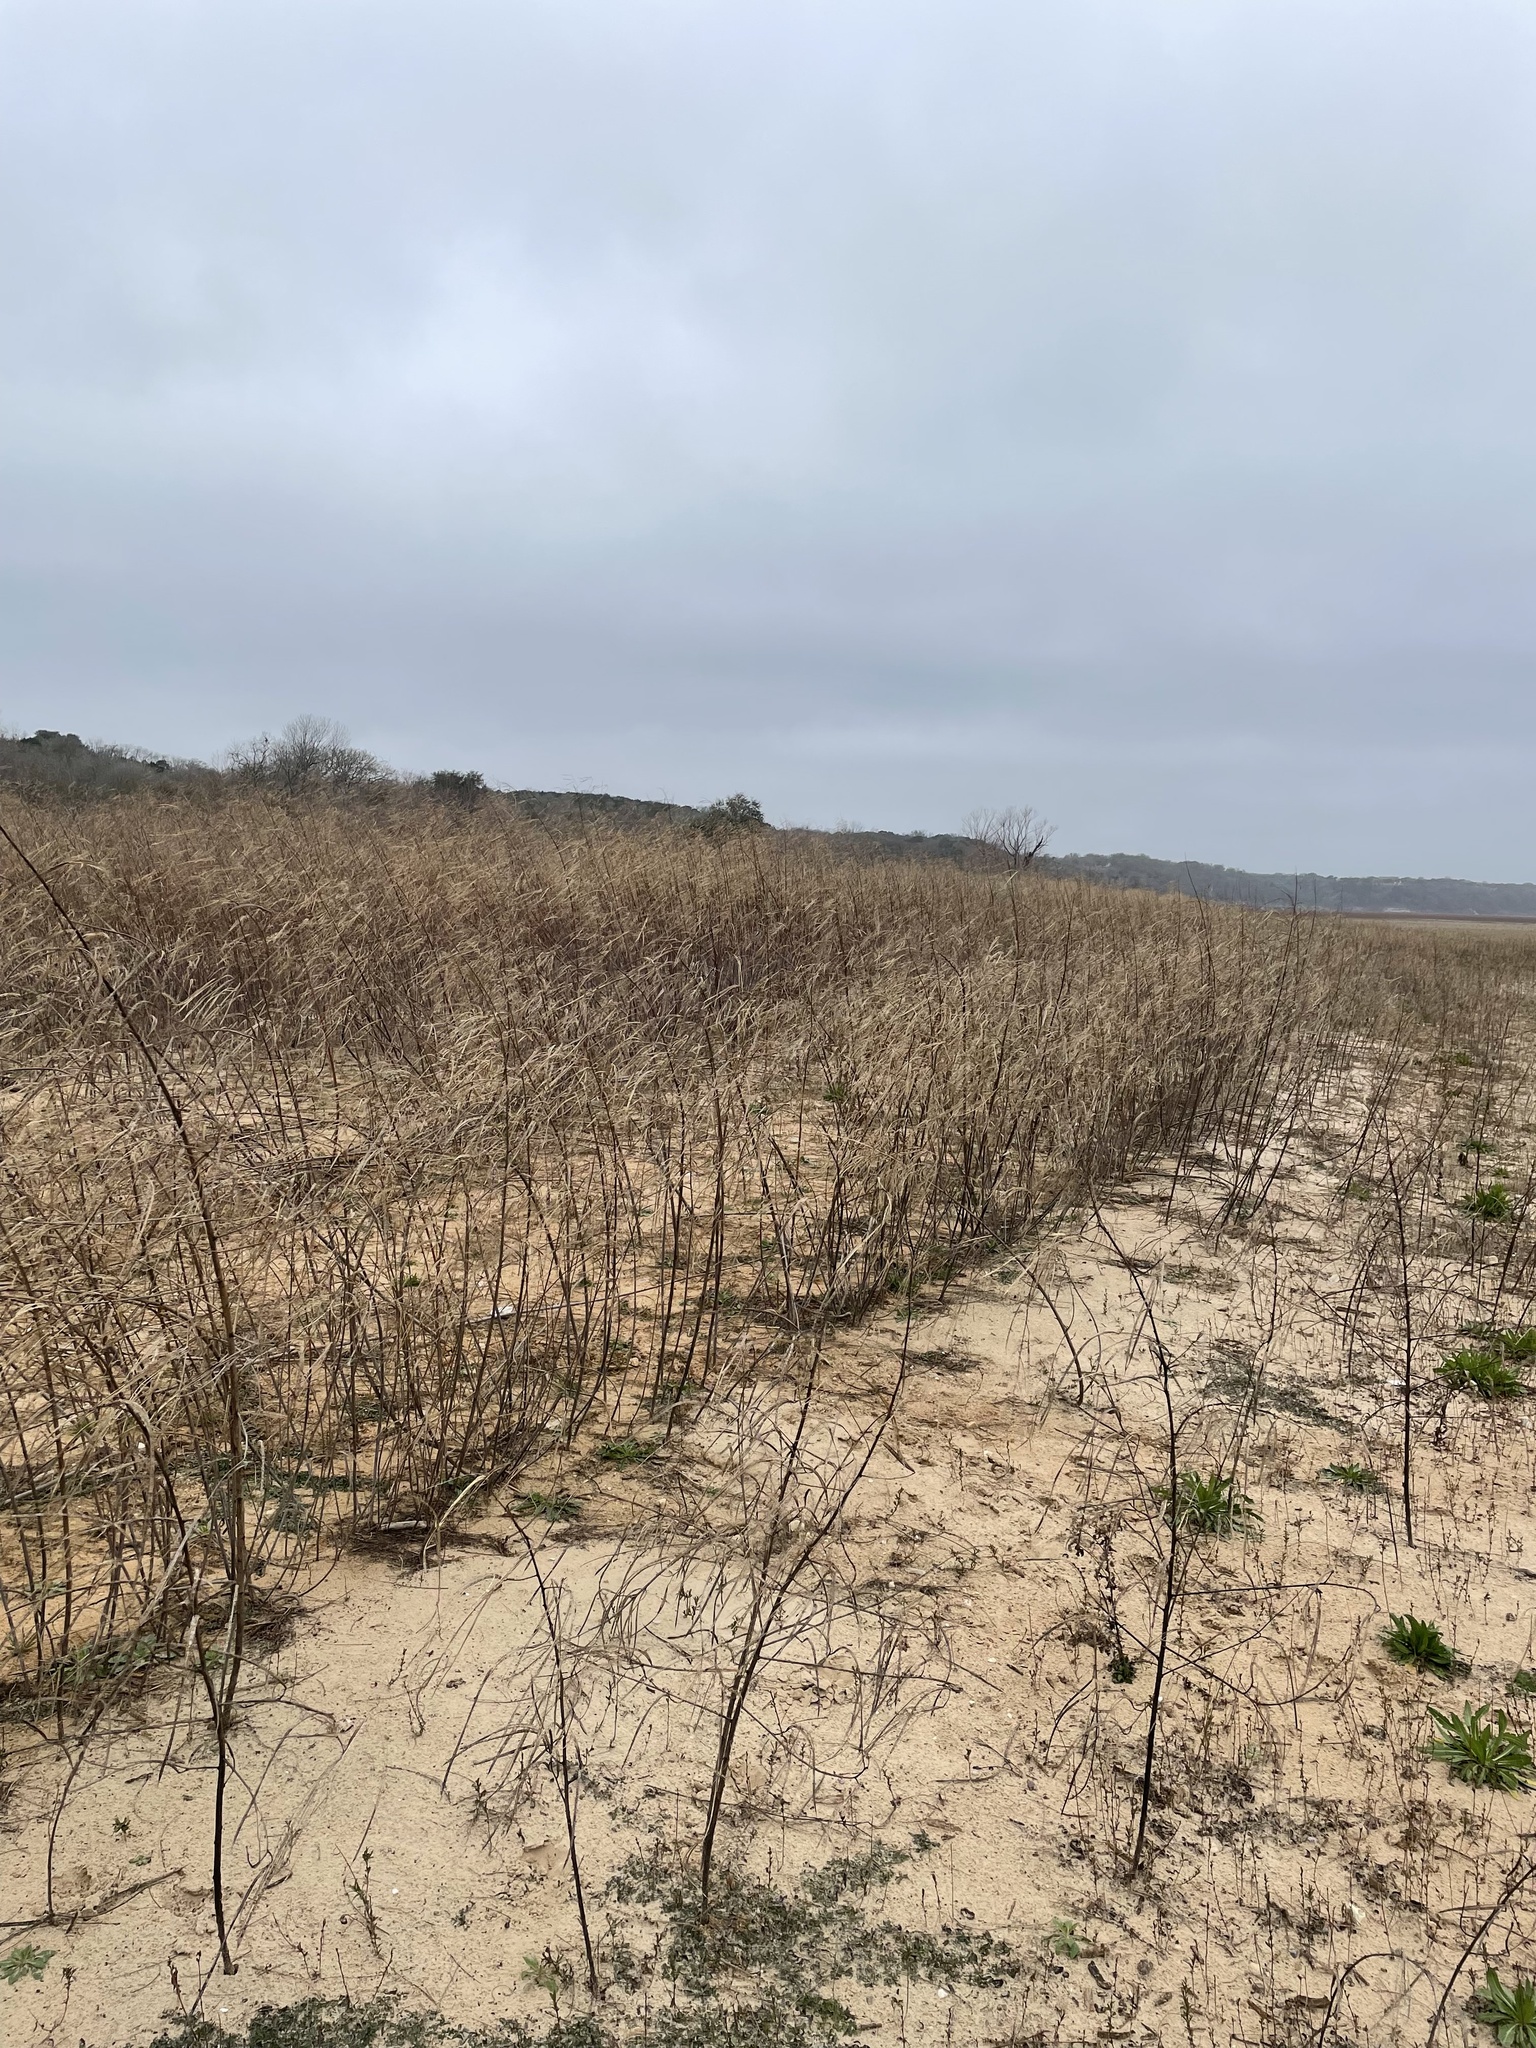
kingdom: Plantae
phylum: Tracheophyta
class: Magnoliopsida
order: Fabales
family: Fabaceae
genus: Sesbania
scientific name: Sesbania herbacea
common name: Bigpod sesbania
